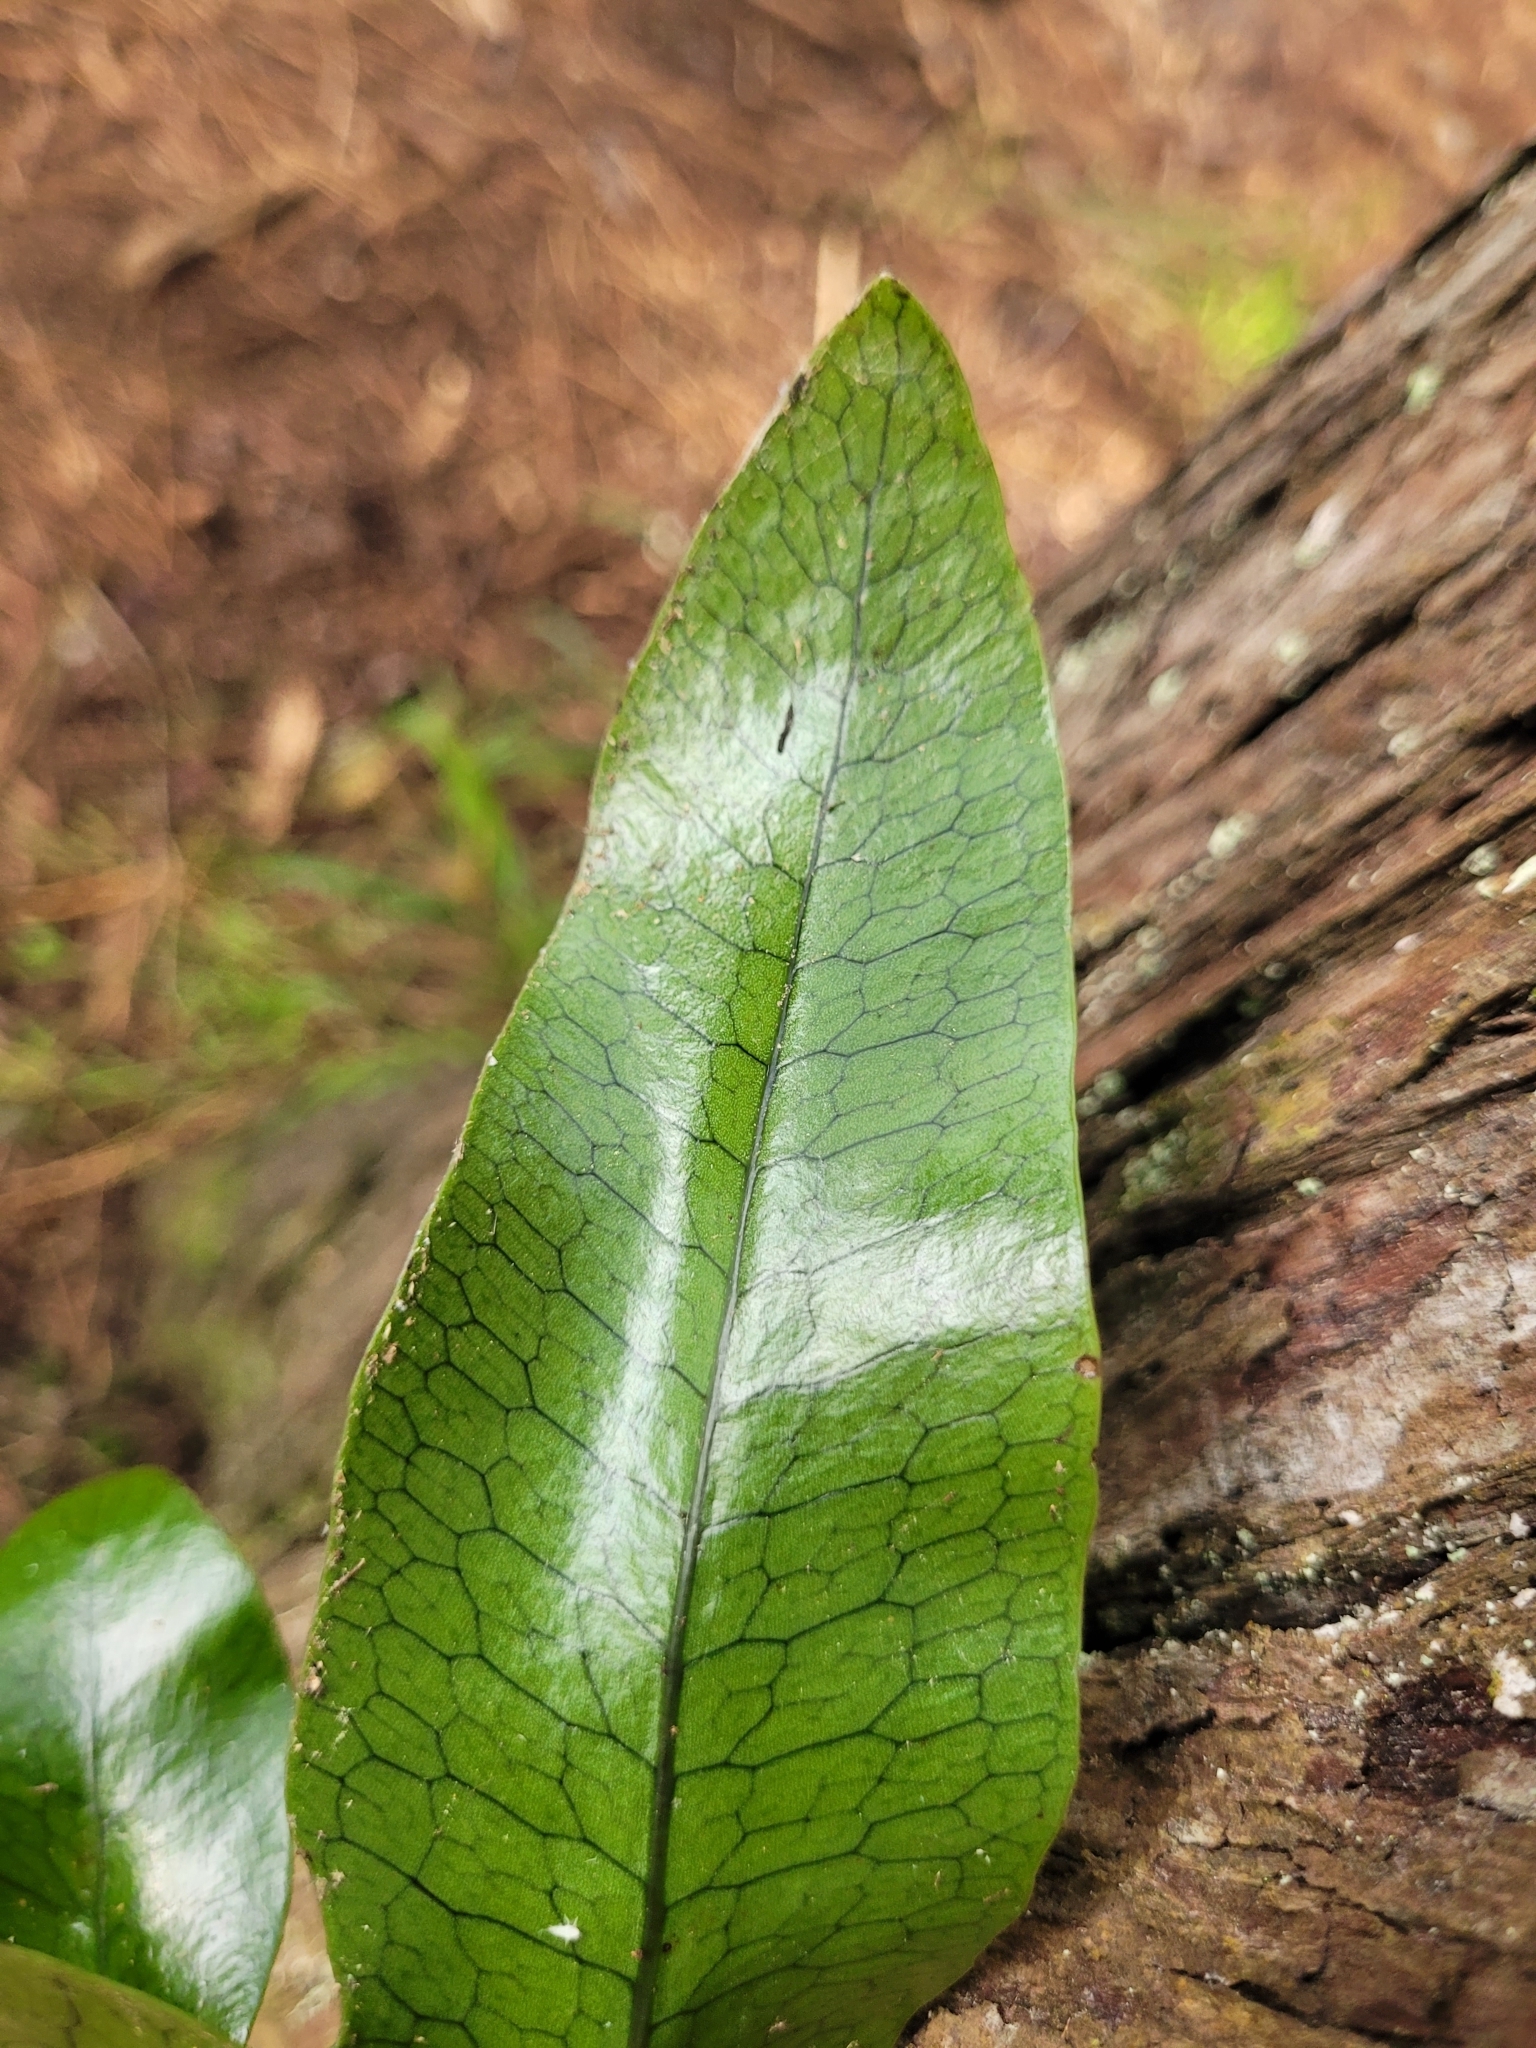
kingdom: Plantae
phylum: Tracheophyta
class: Polypodiopsida
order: Polypodiales
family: Polypodiaceae
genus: Lecanopteris
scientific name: Lecanopteris pustulata
